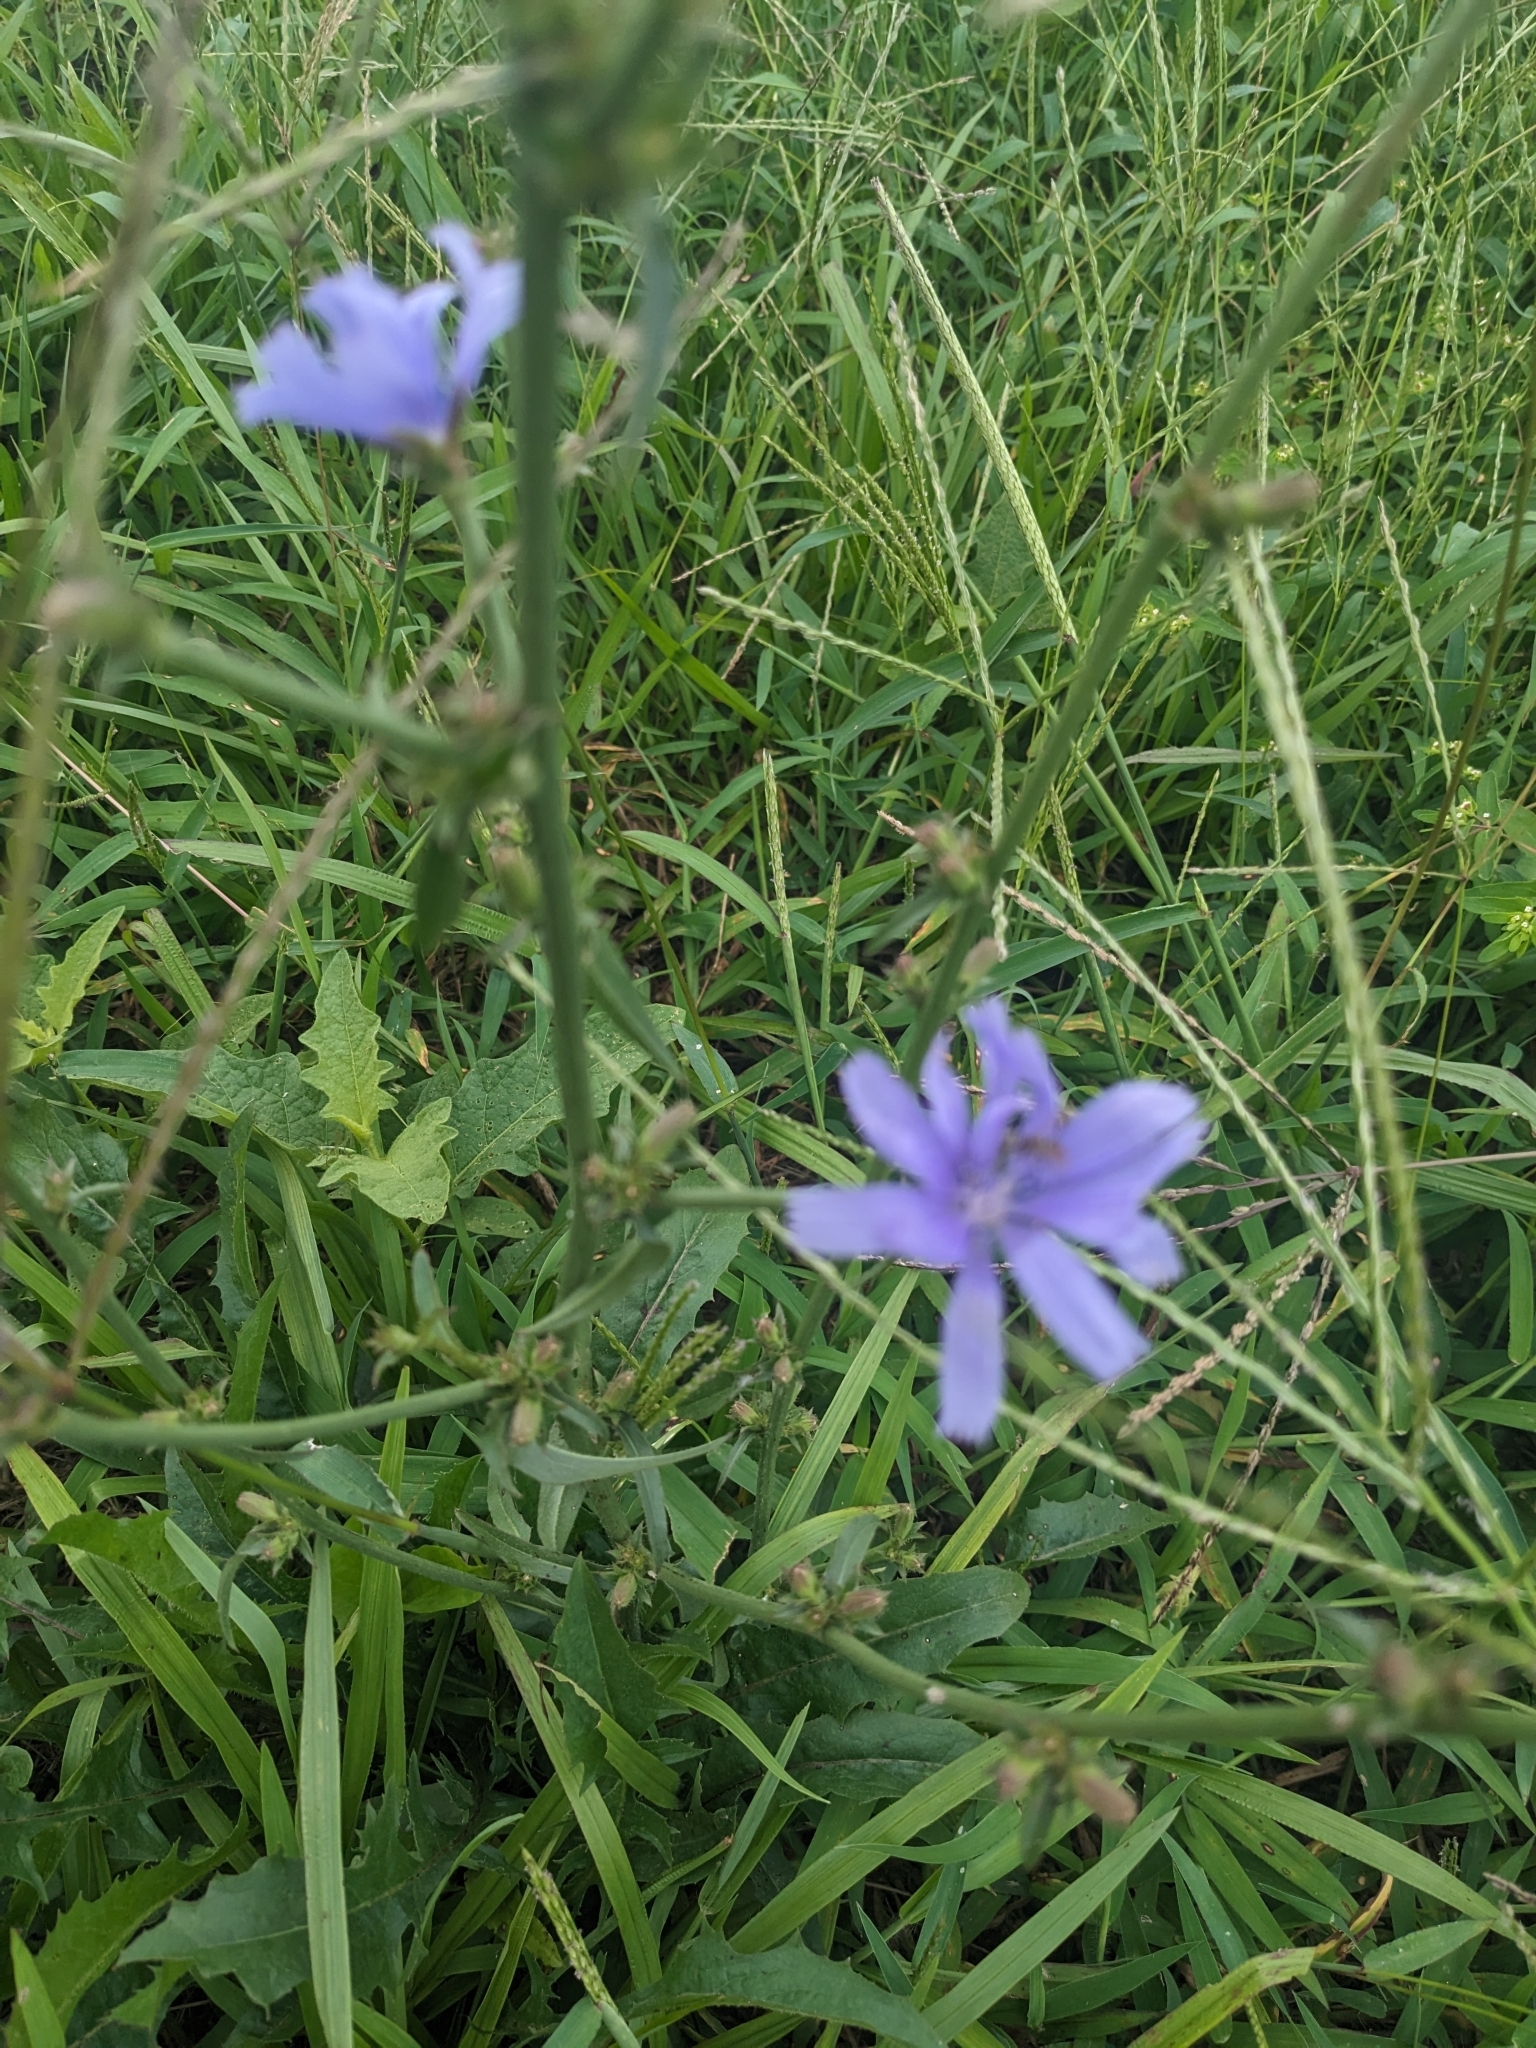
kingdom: Plantae
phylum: Tracheophyta
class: Magnoliopsida
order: Asterales
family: Asteraceae
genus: Cichorium
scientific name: Cichorium intybus
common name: Chicory
